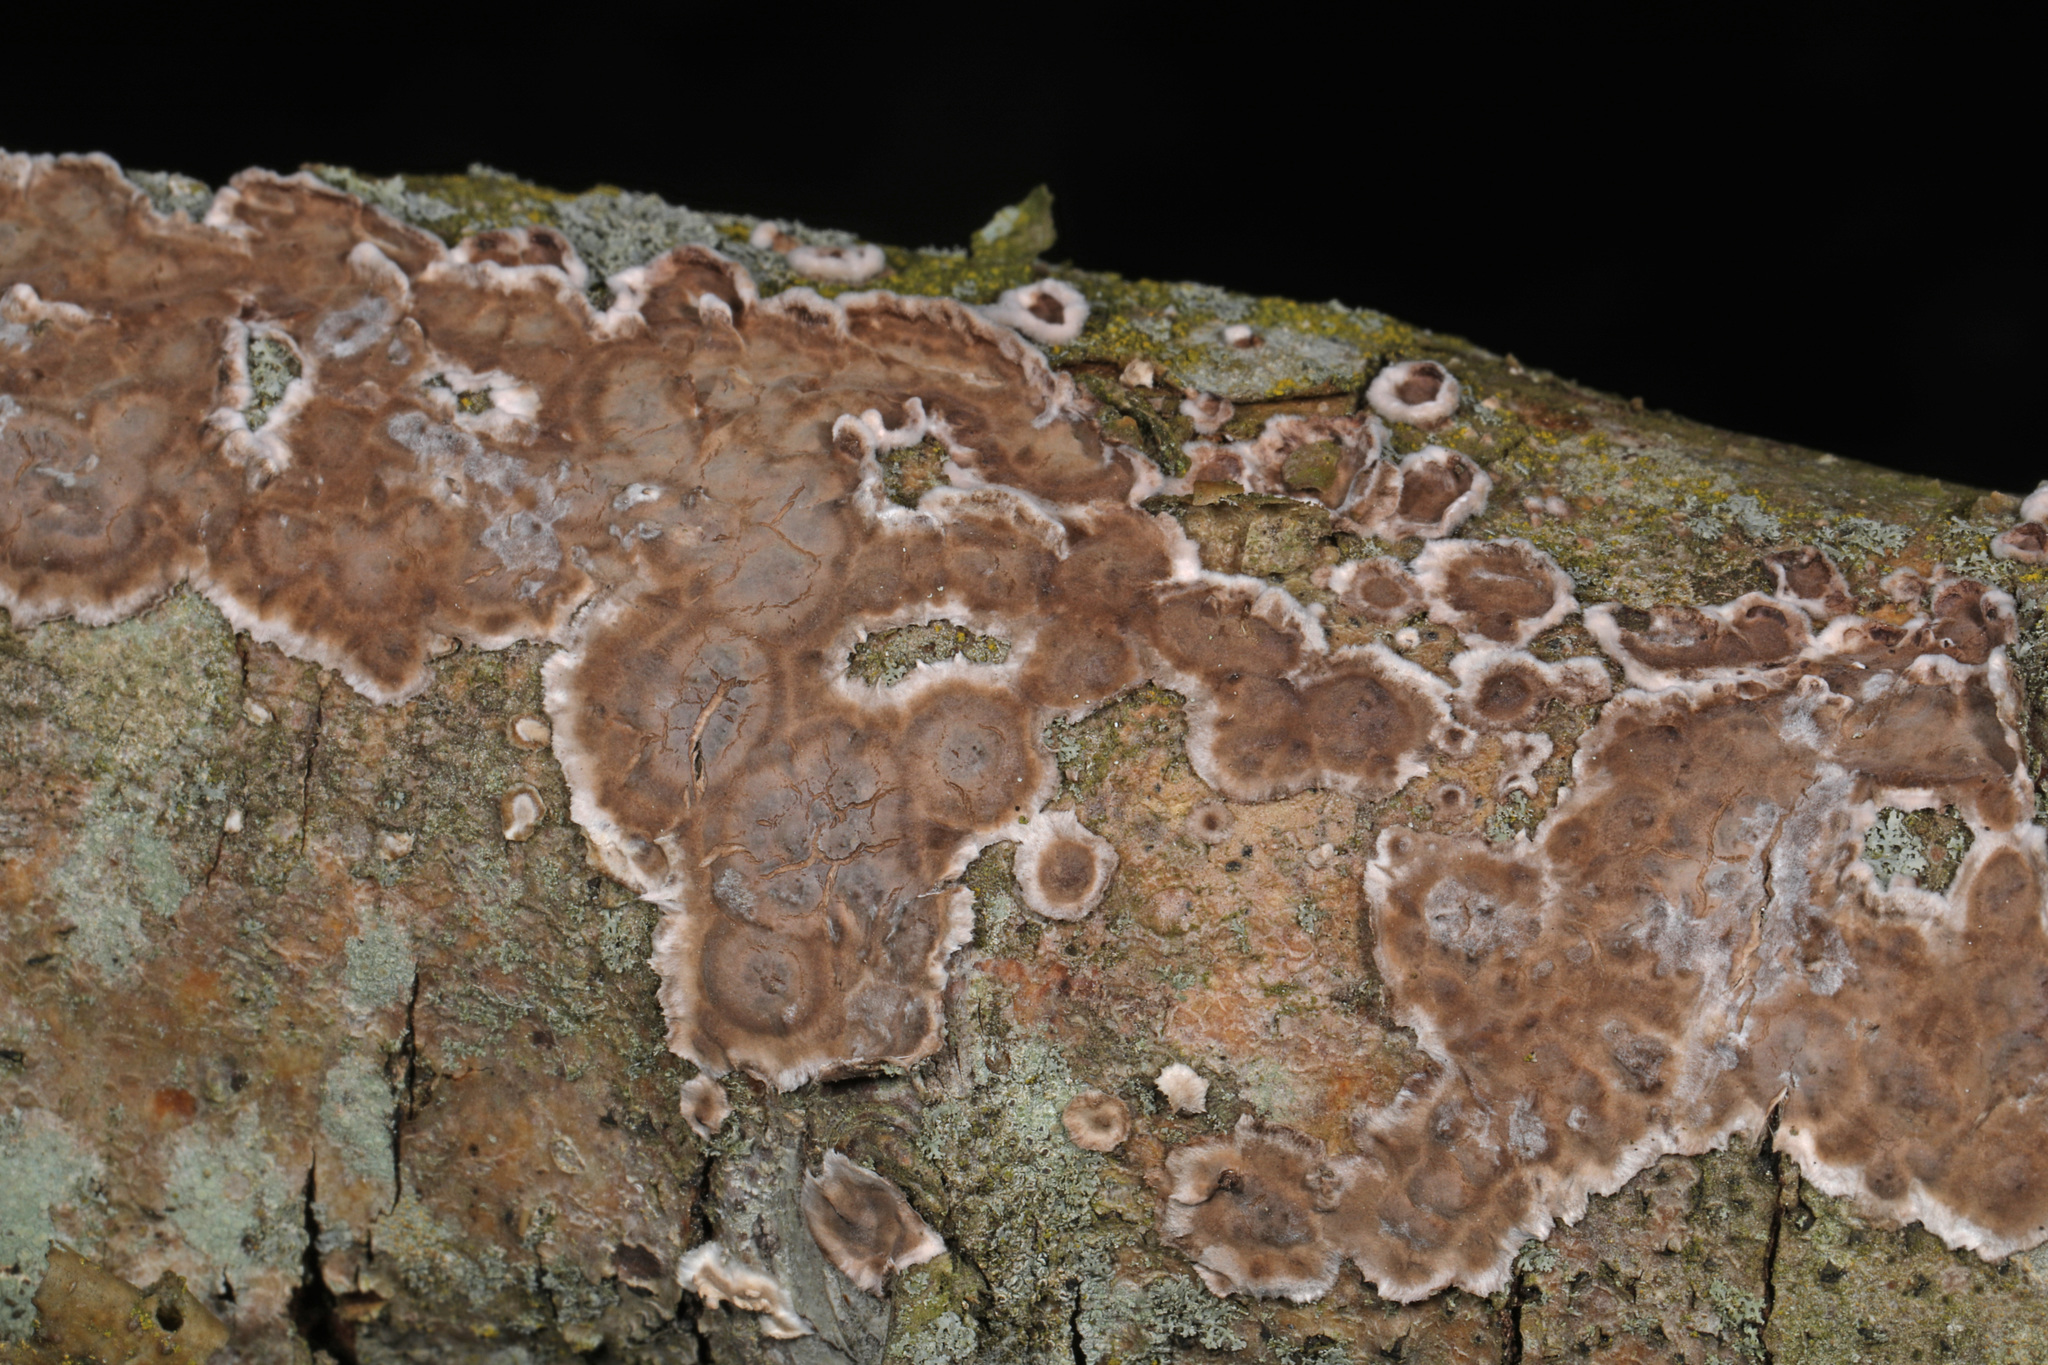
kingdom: Fungi
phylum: Basidiomycota
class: Agaricomycetes
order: Russulales
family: Peniophoraceae
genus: Peniophora
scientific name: Peniophora albobadia
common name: Giraffe spots
